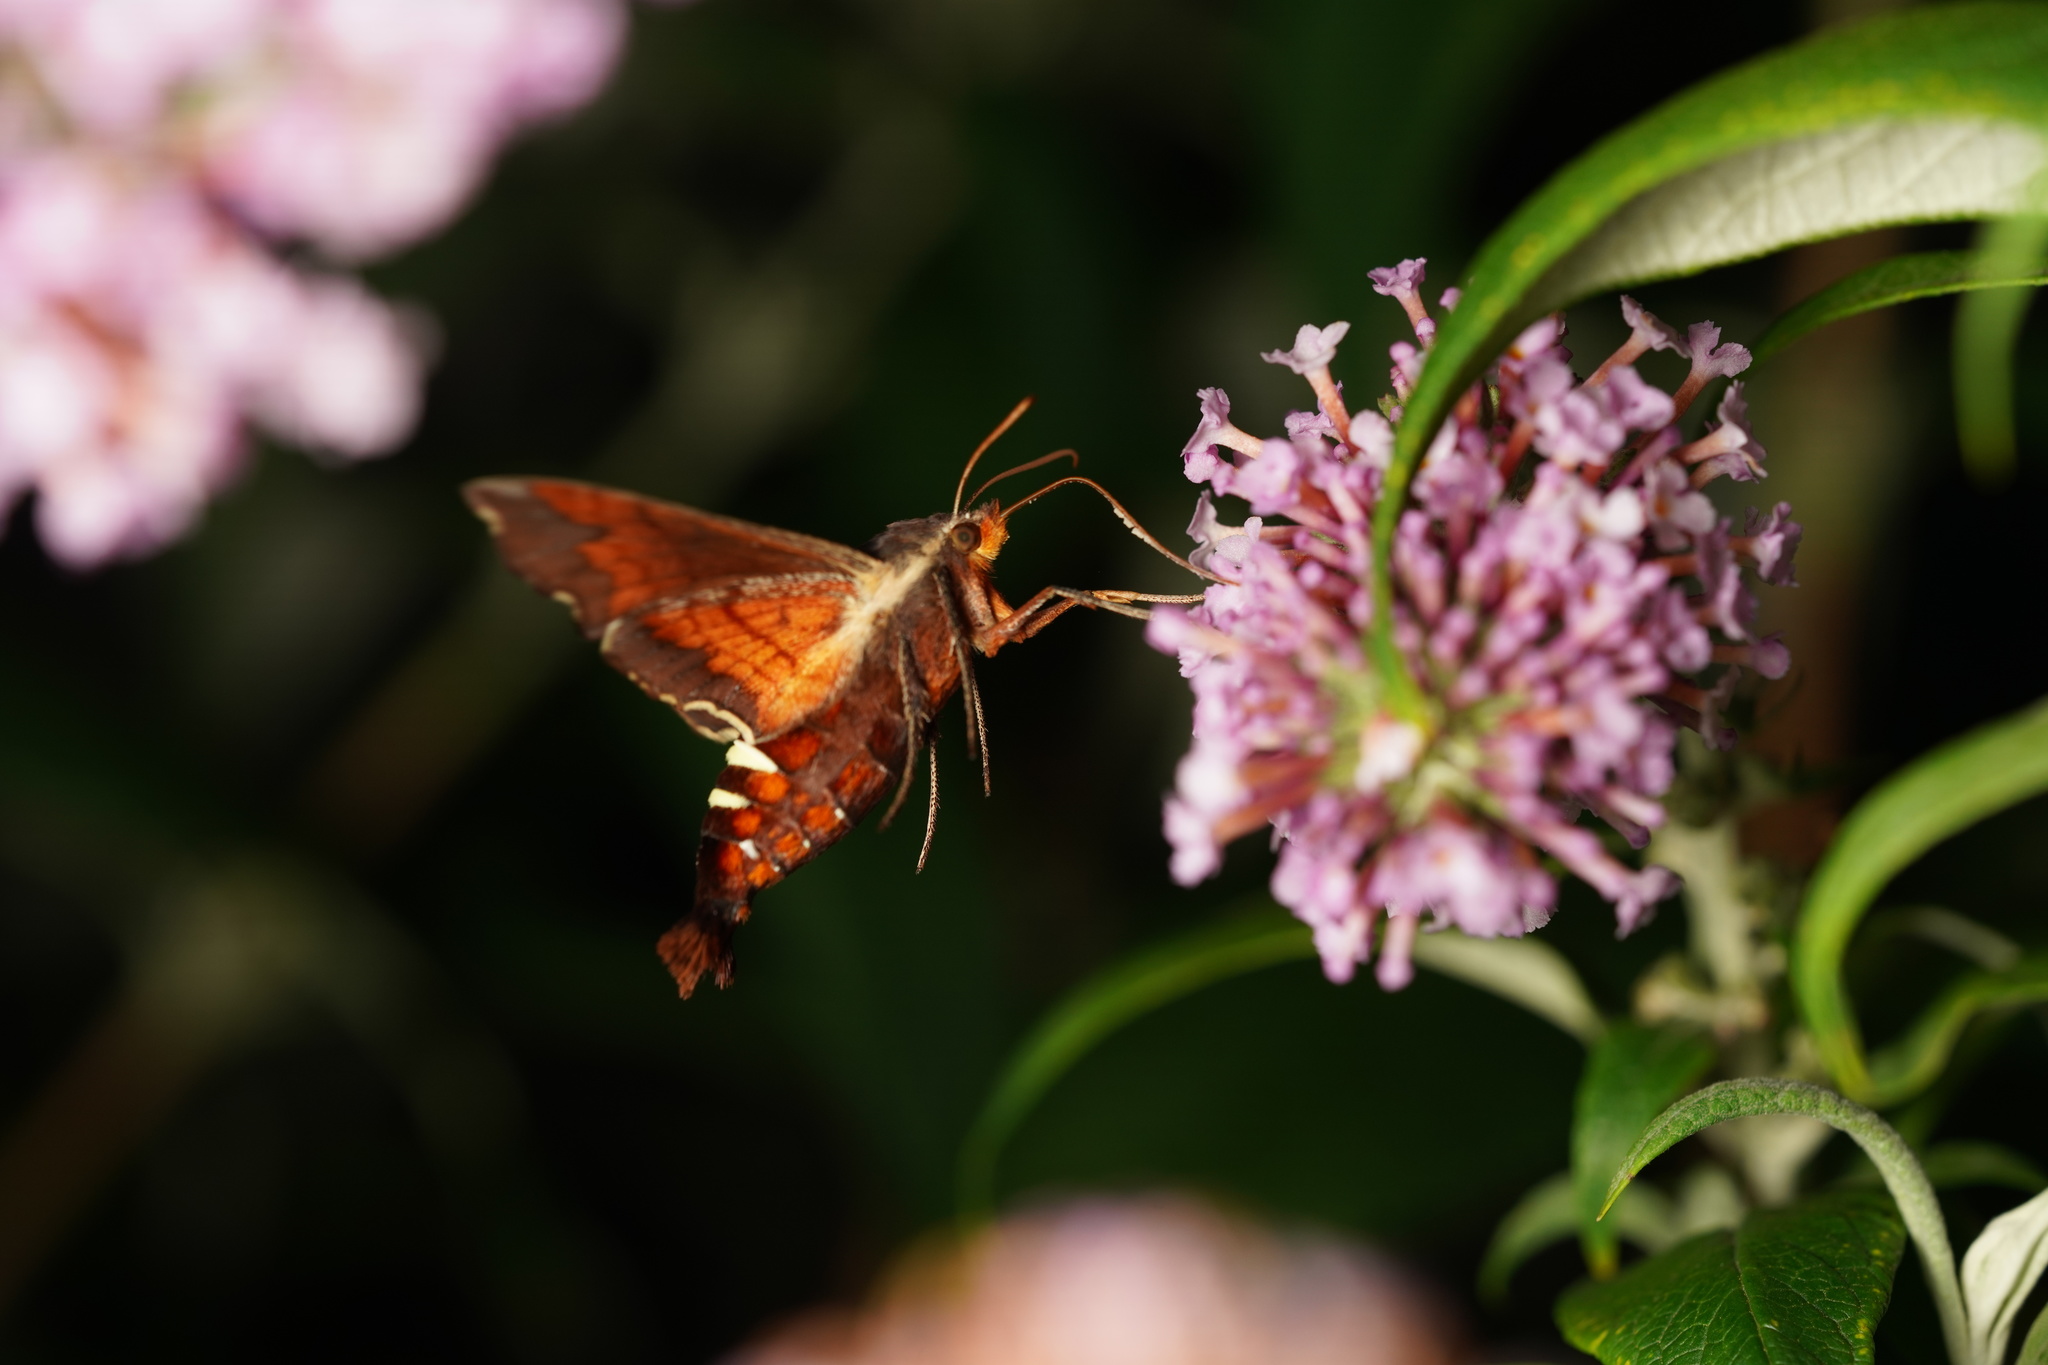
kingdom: Animalia
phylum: Arthropoda
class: Insecta
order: Lepidoptera
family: Sphingidae
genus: Amphion
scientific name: Amphion floridensis
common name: Nessus sphinx
